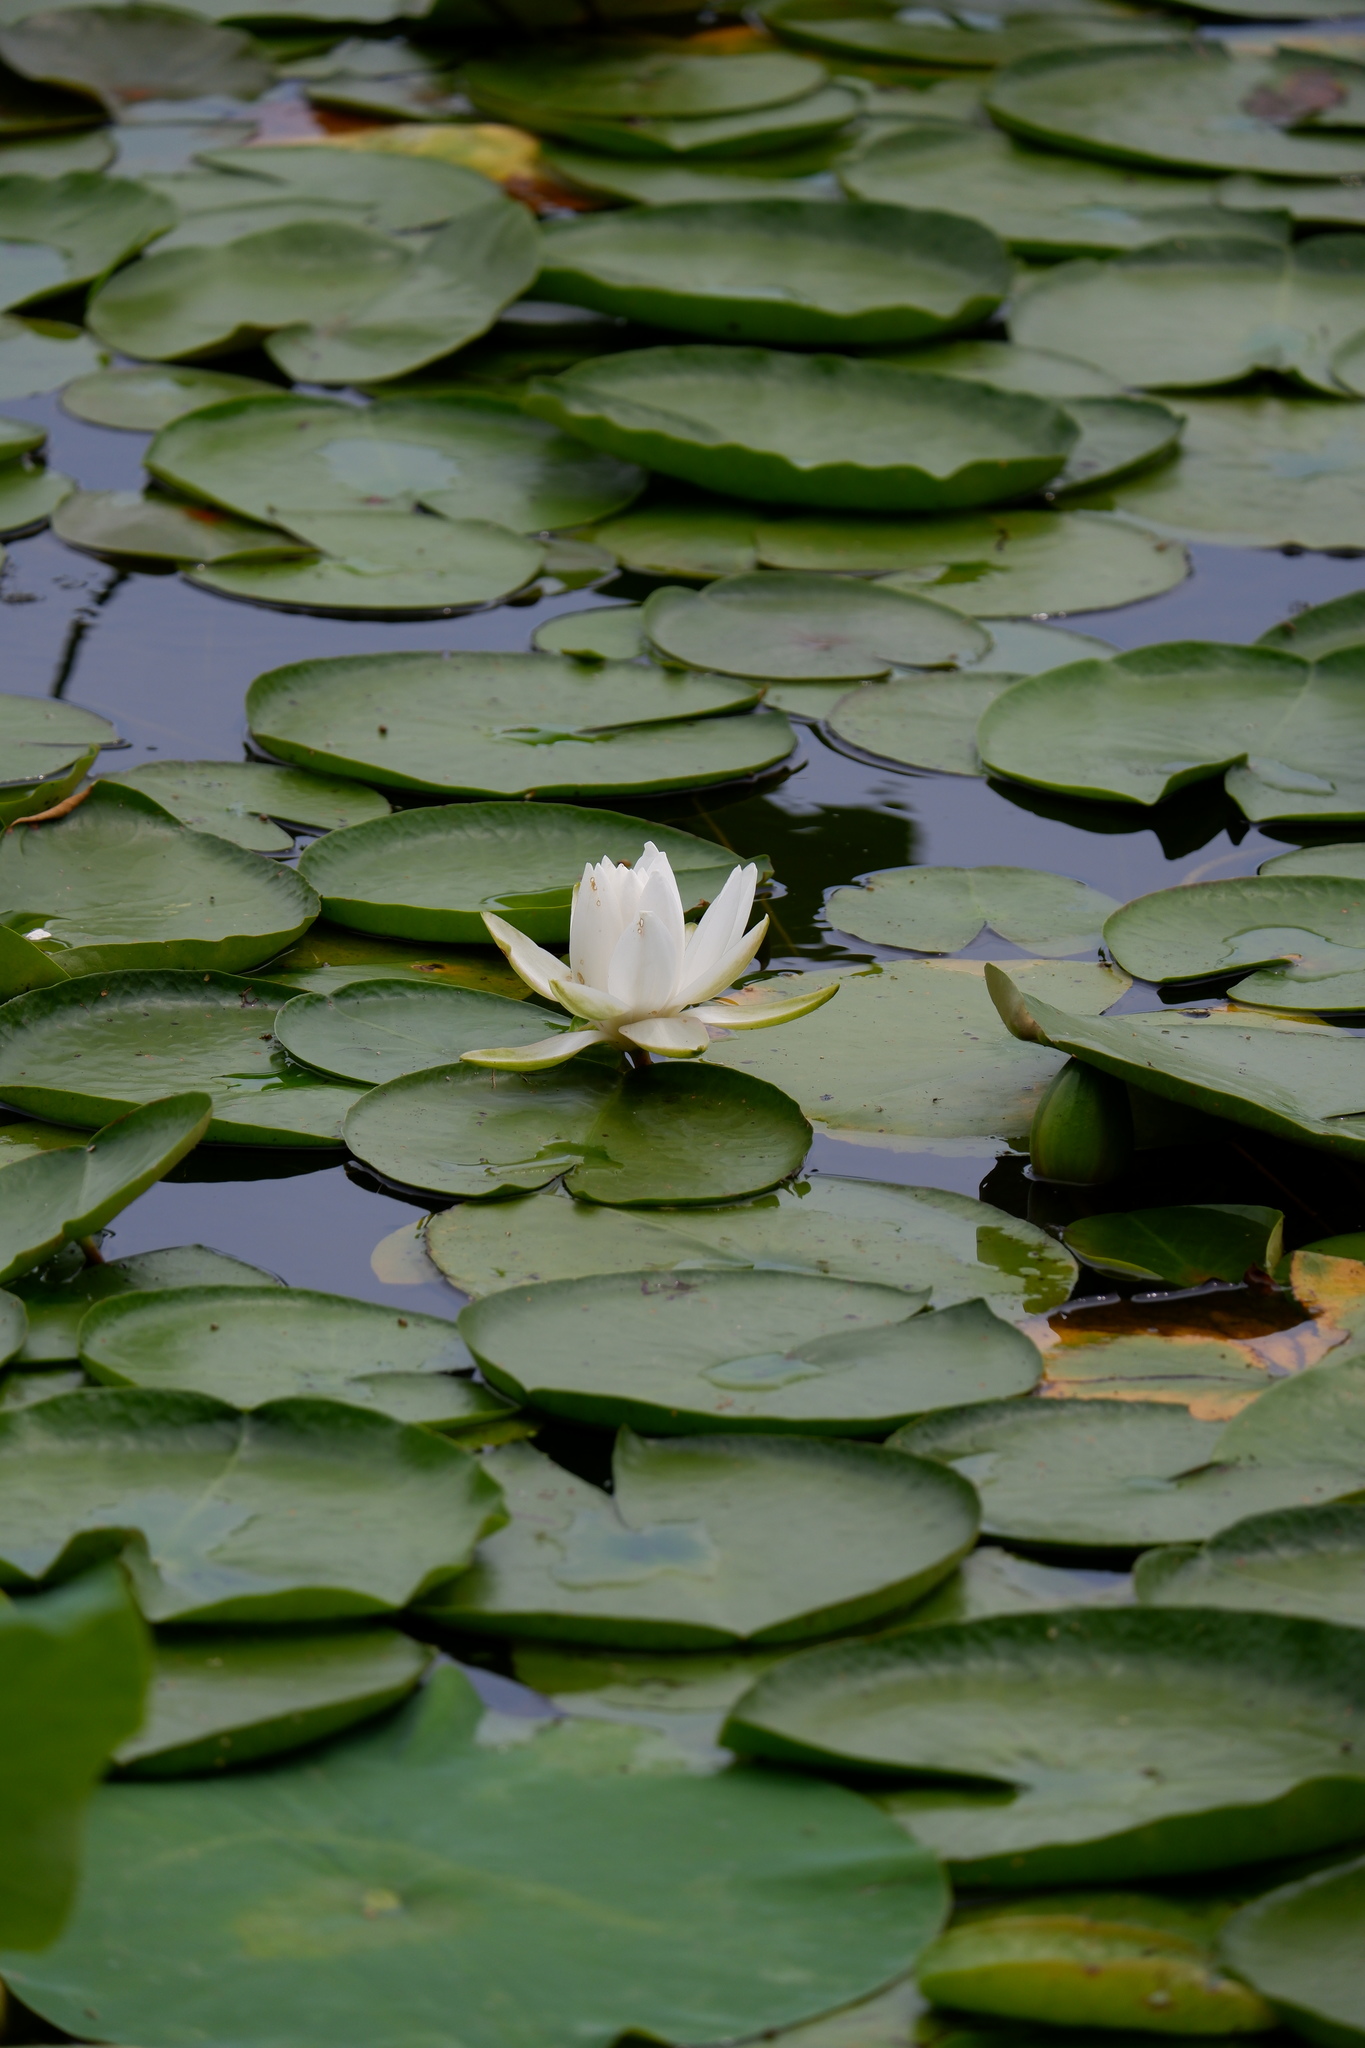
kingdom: Plantae
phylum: Tracheophyta
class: Magnoliopsida
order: Nymphaeales
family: Nymphaeaceae
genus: Nymphaea
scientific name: Nymphaea odorata
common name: Fragrant water-lily
